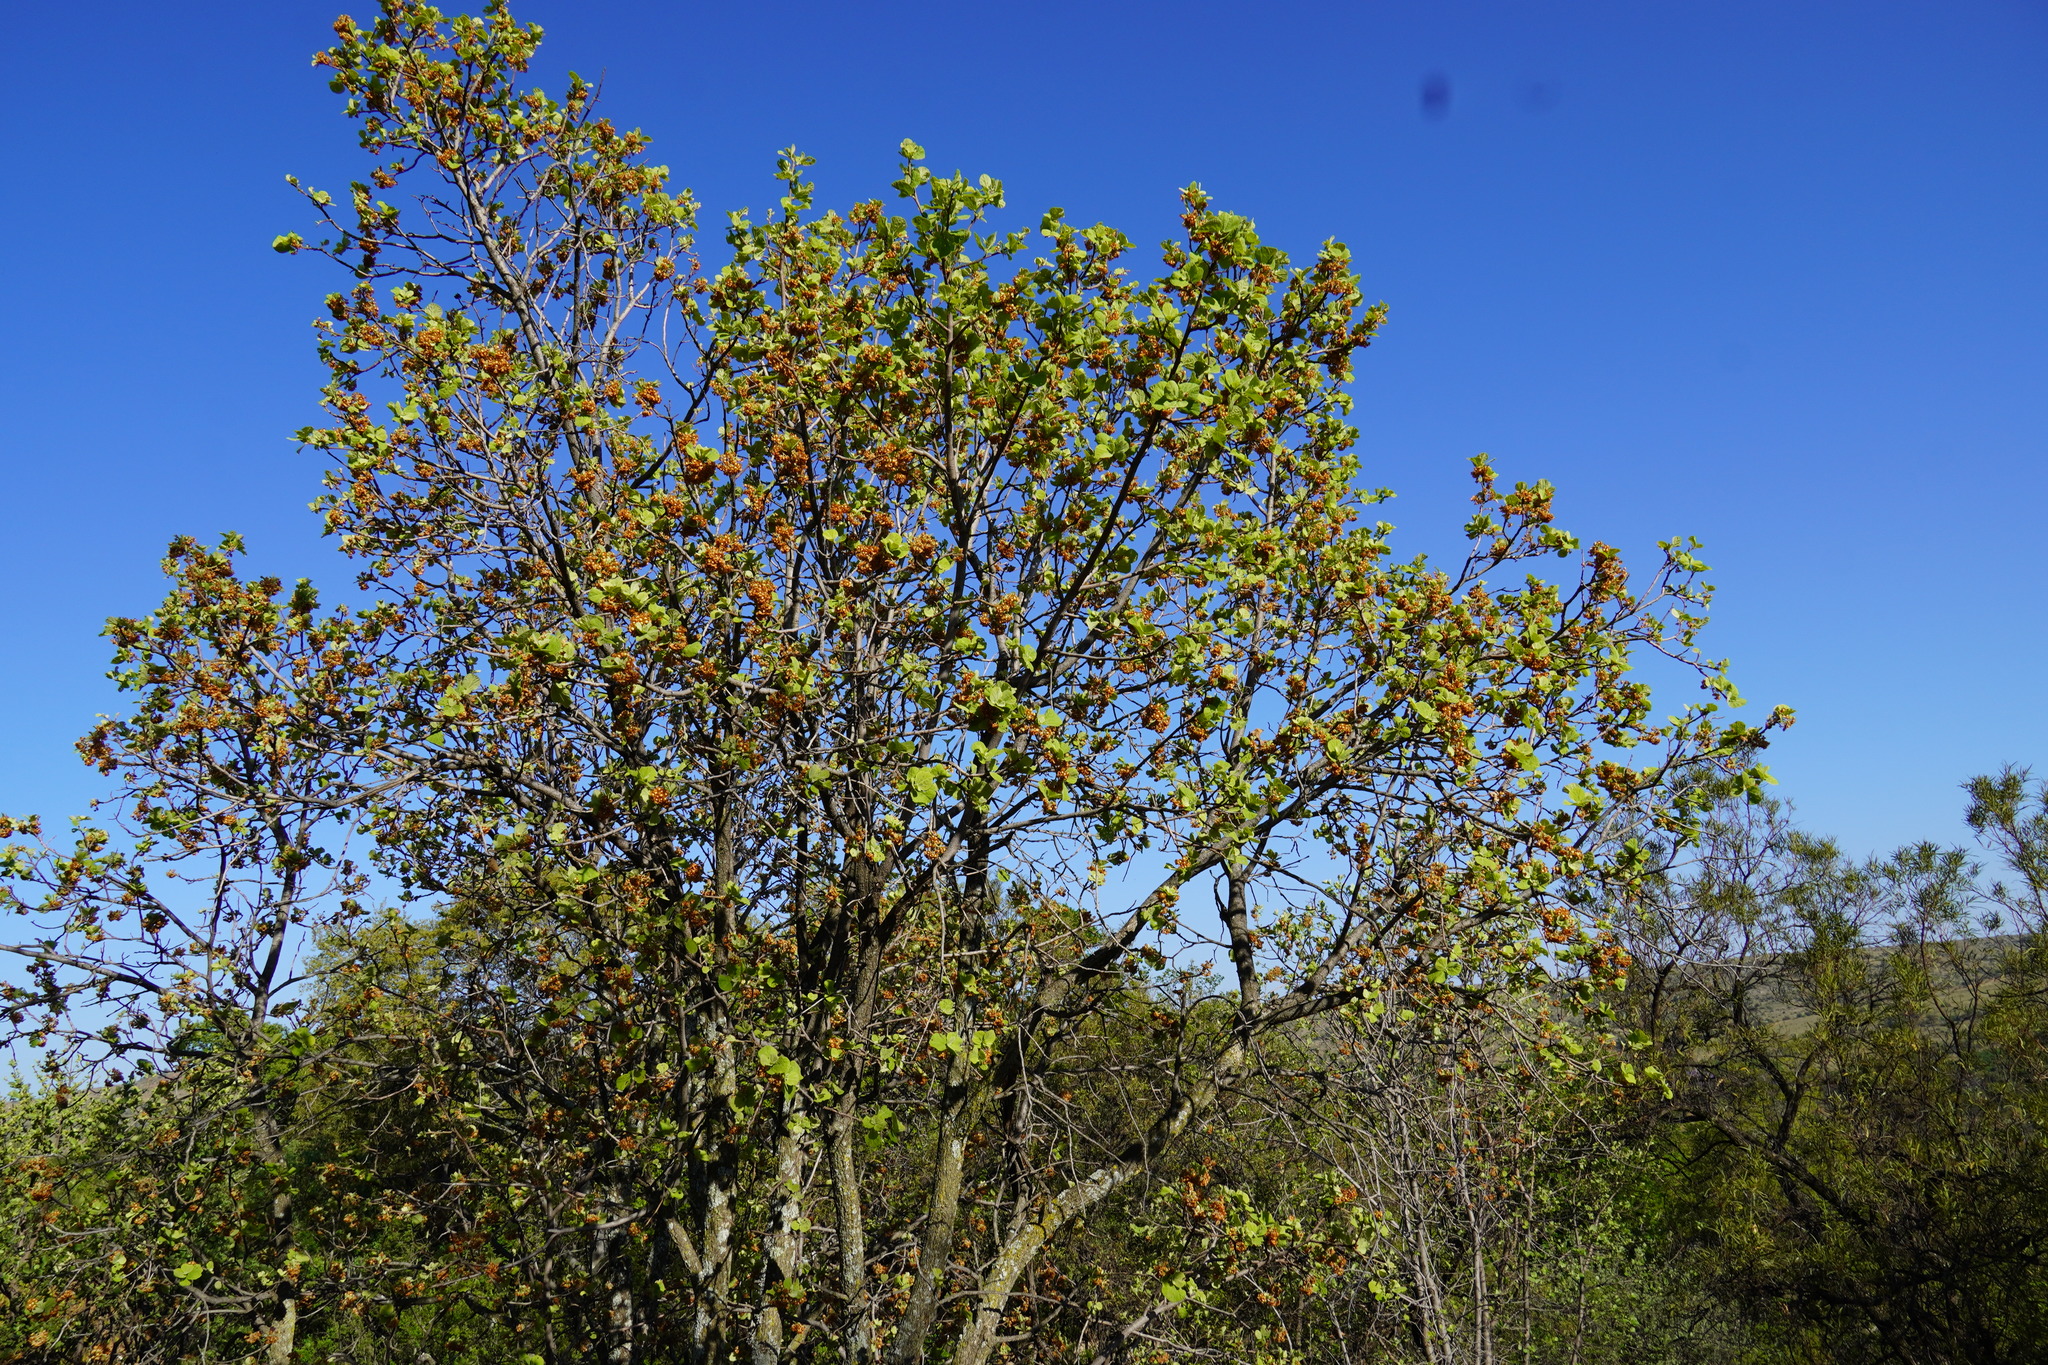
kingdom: Plantae
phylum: Tracheophyta
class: Magnoliopsida
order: Malvales
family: Malvaceae
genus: Dombeya
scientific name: Dombeya rotundifolia
